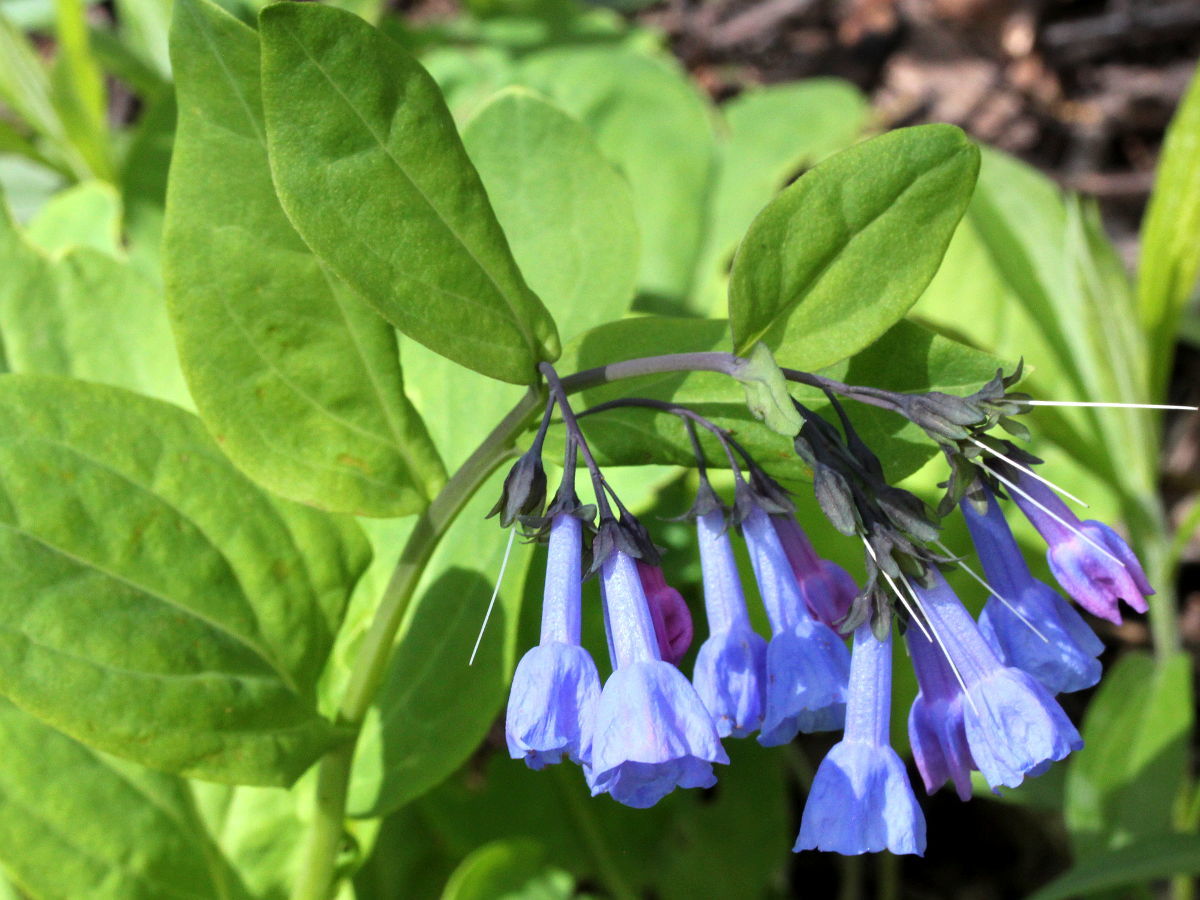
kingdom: Plantae
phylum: Tracheophyta
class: Magnoliopsida
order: Boraginales
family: Boraginaceae
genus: Mertensia
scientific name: Mertensia virginica
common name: Virginia bluebells
